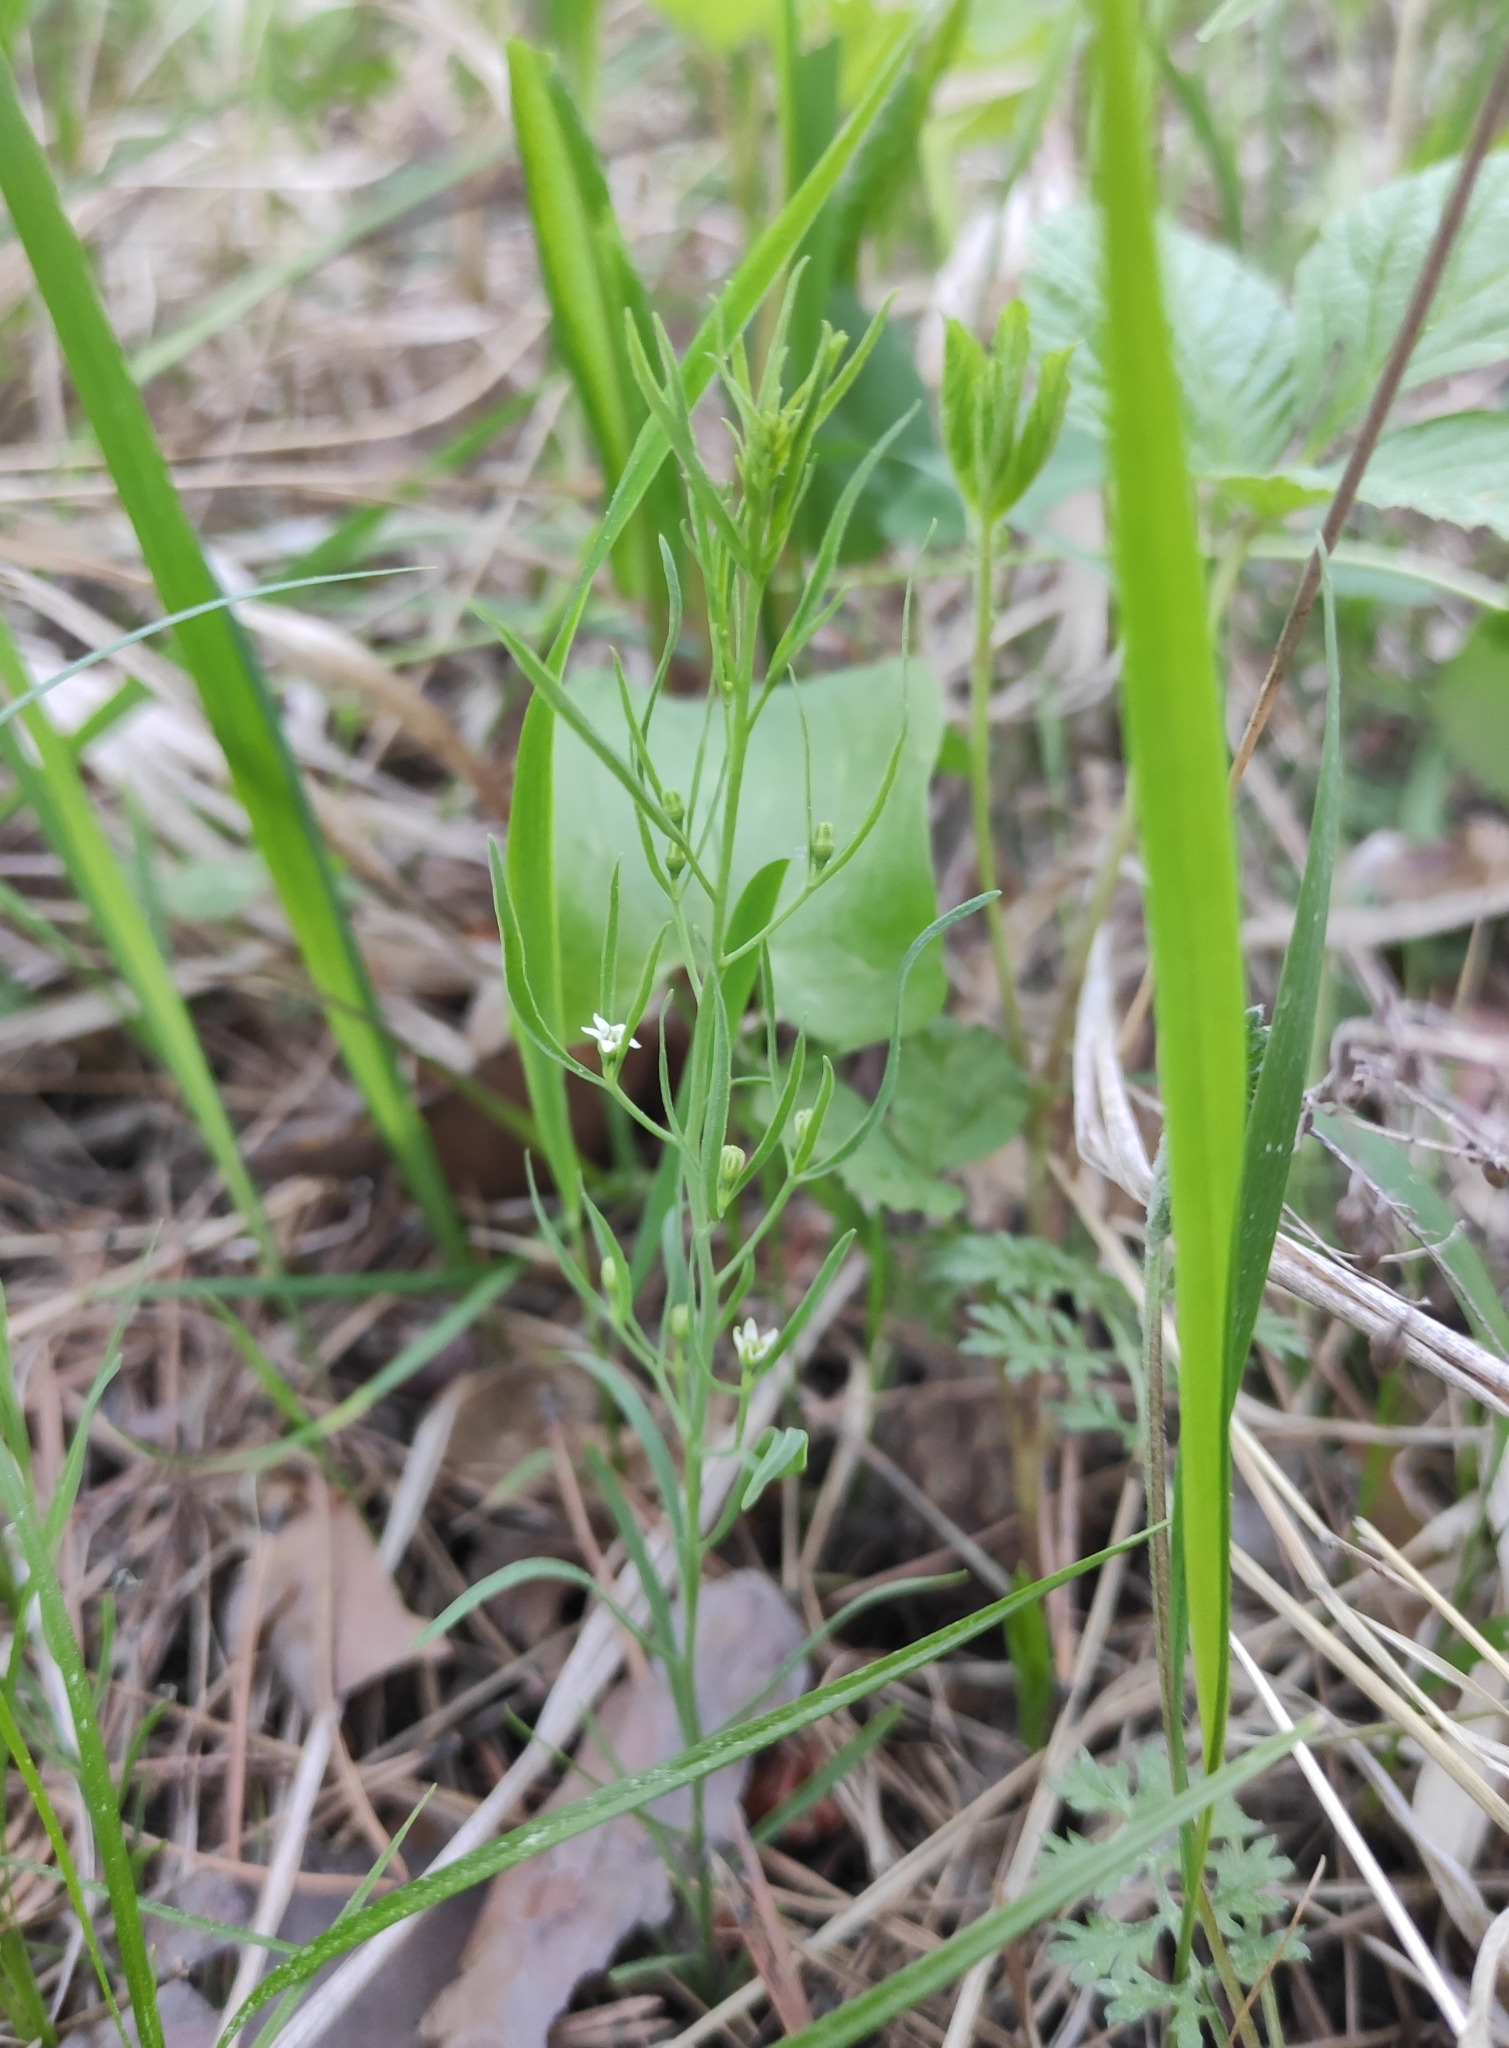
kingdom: Plantae
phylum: Tracheophyta
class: Magnoliopsida
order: Santalales
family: Thesiaceae
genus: Thesium
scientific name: Thesium repens
